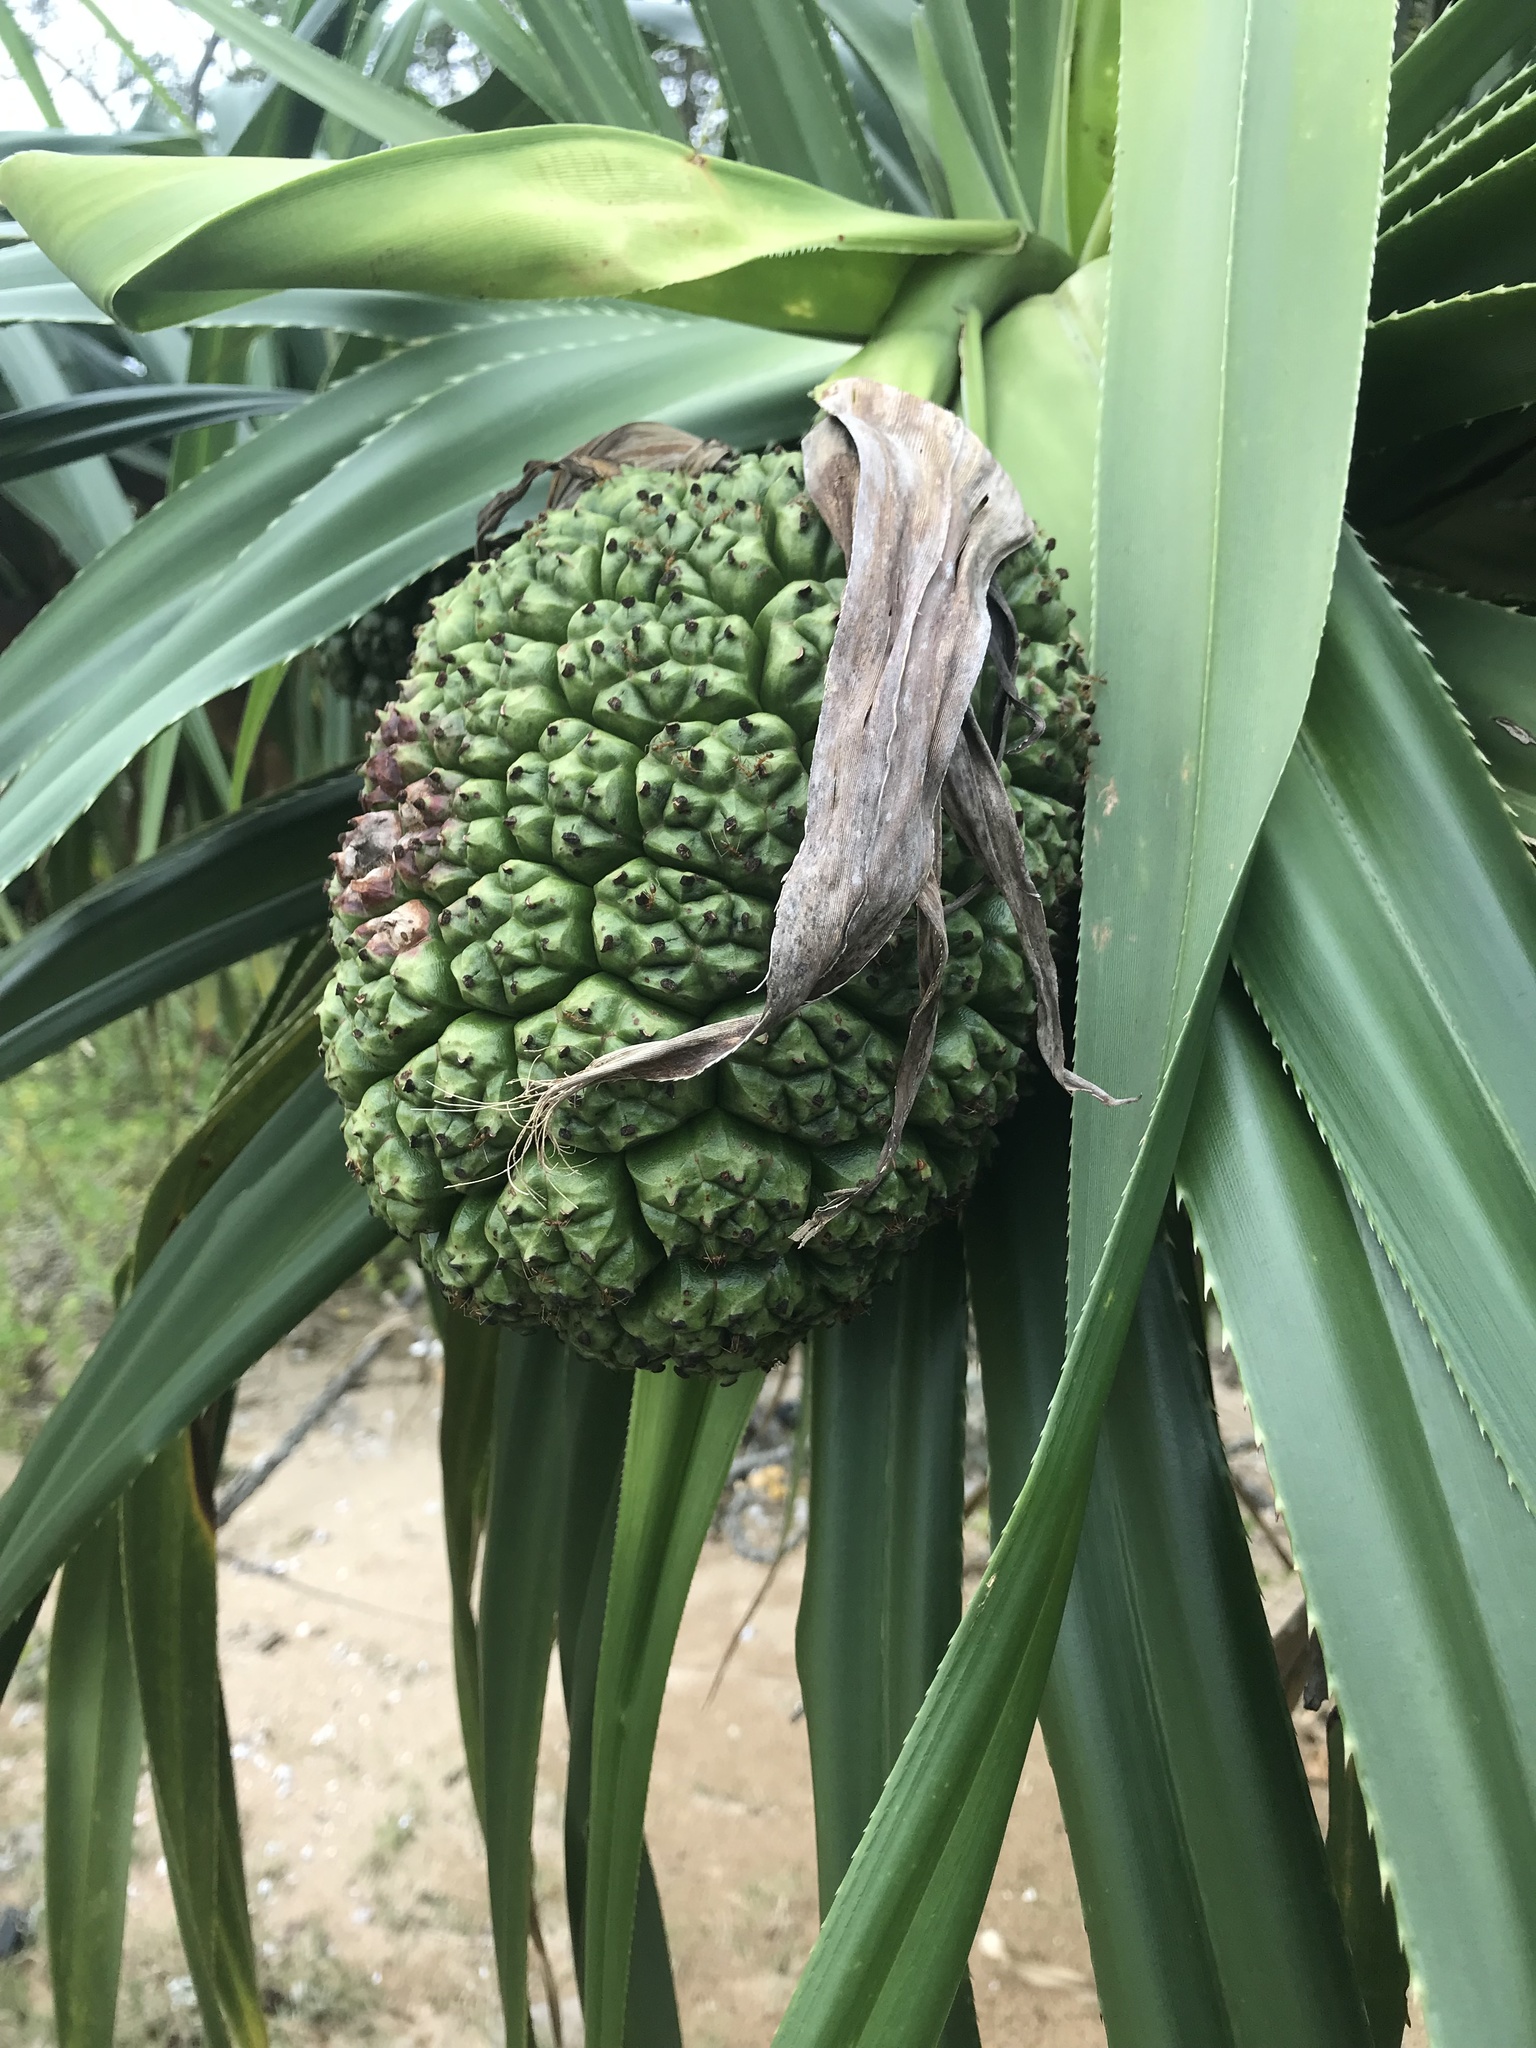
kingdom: Plantae
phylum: Tracheophyta
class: Liliopsida
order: Pandanales
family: Pandanaceae
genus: Pandanus
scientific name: Pandanus tectorius
